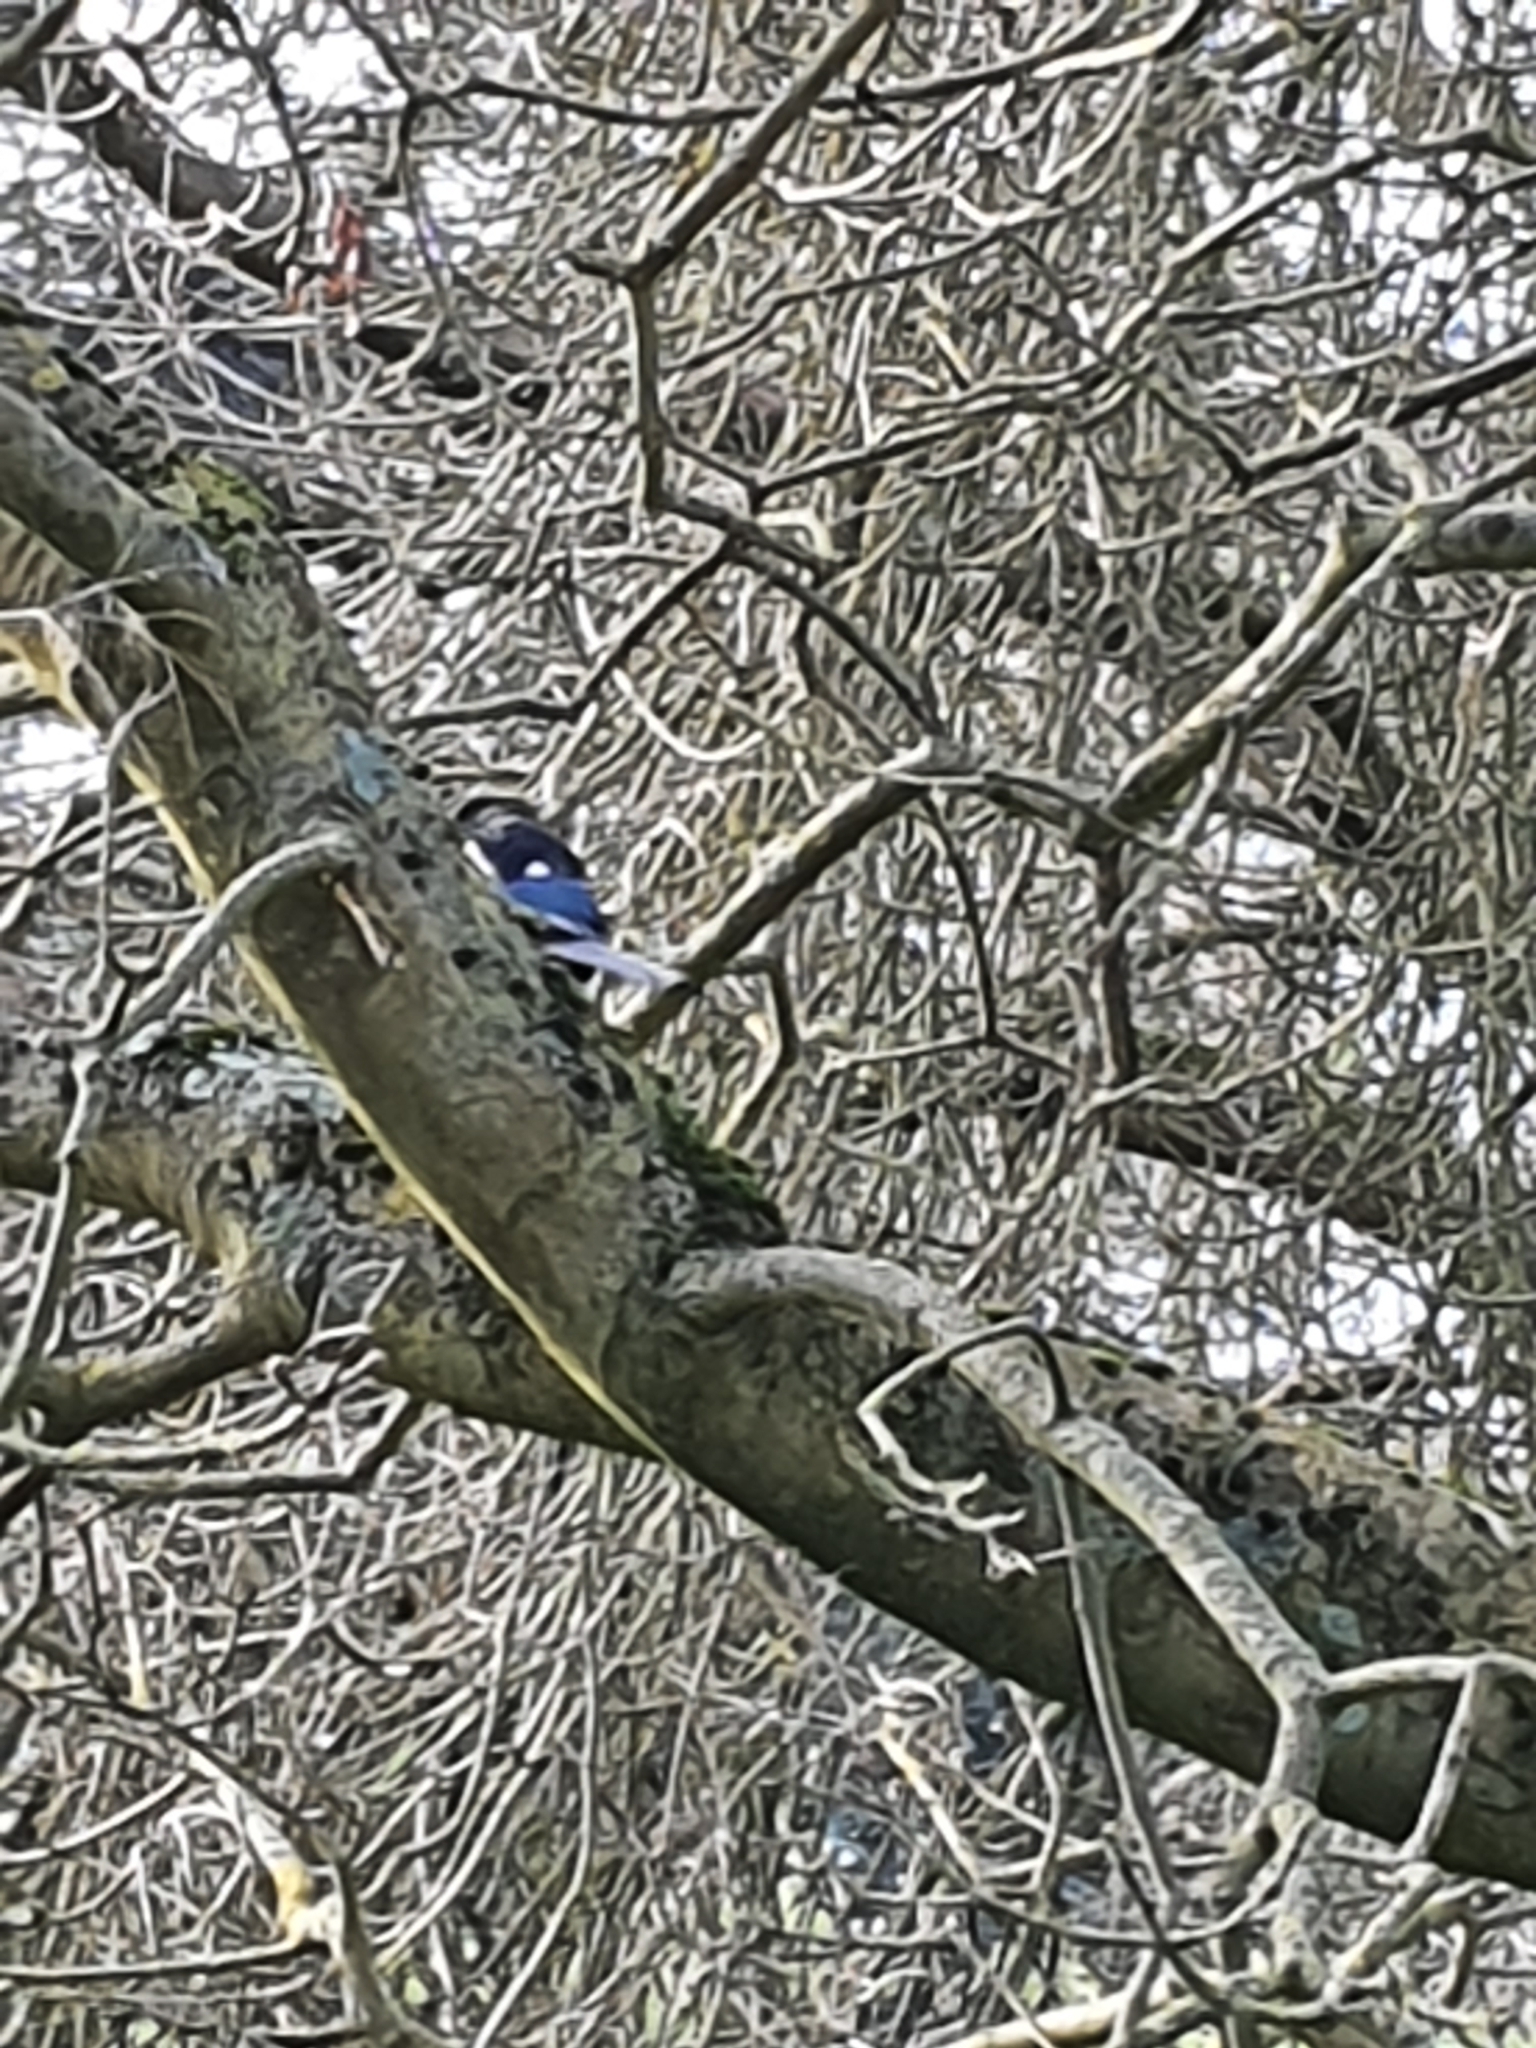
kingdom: Animalia
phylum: Chordata
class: Aves
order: Passeriformes
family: Corvidae
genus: Pica
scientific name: Pica pica
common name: Eurasian magpie
